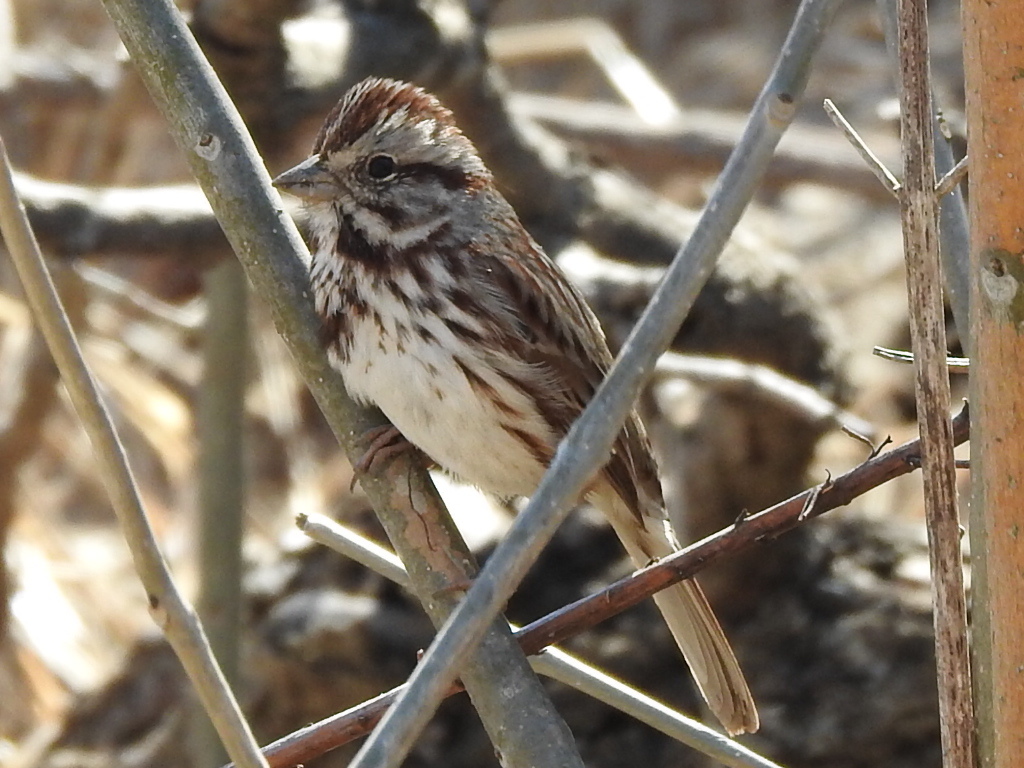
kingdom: Animalia
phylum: Chordata
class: Aves
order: Passeriformes
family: Passerellidae
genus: Melospiza
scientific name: Melospiza melodia
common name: Song sparrow
